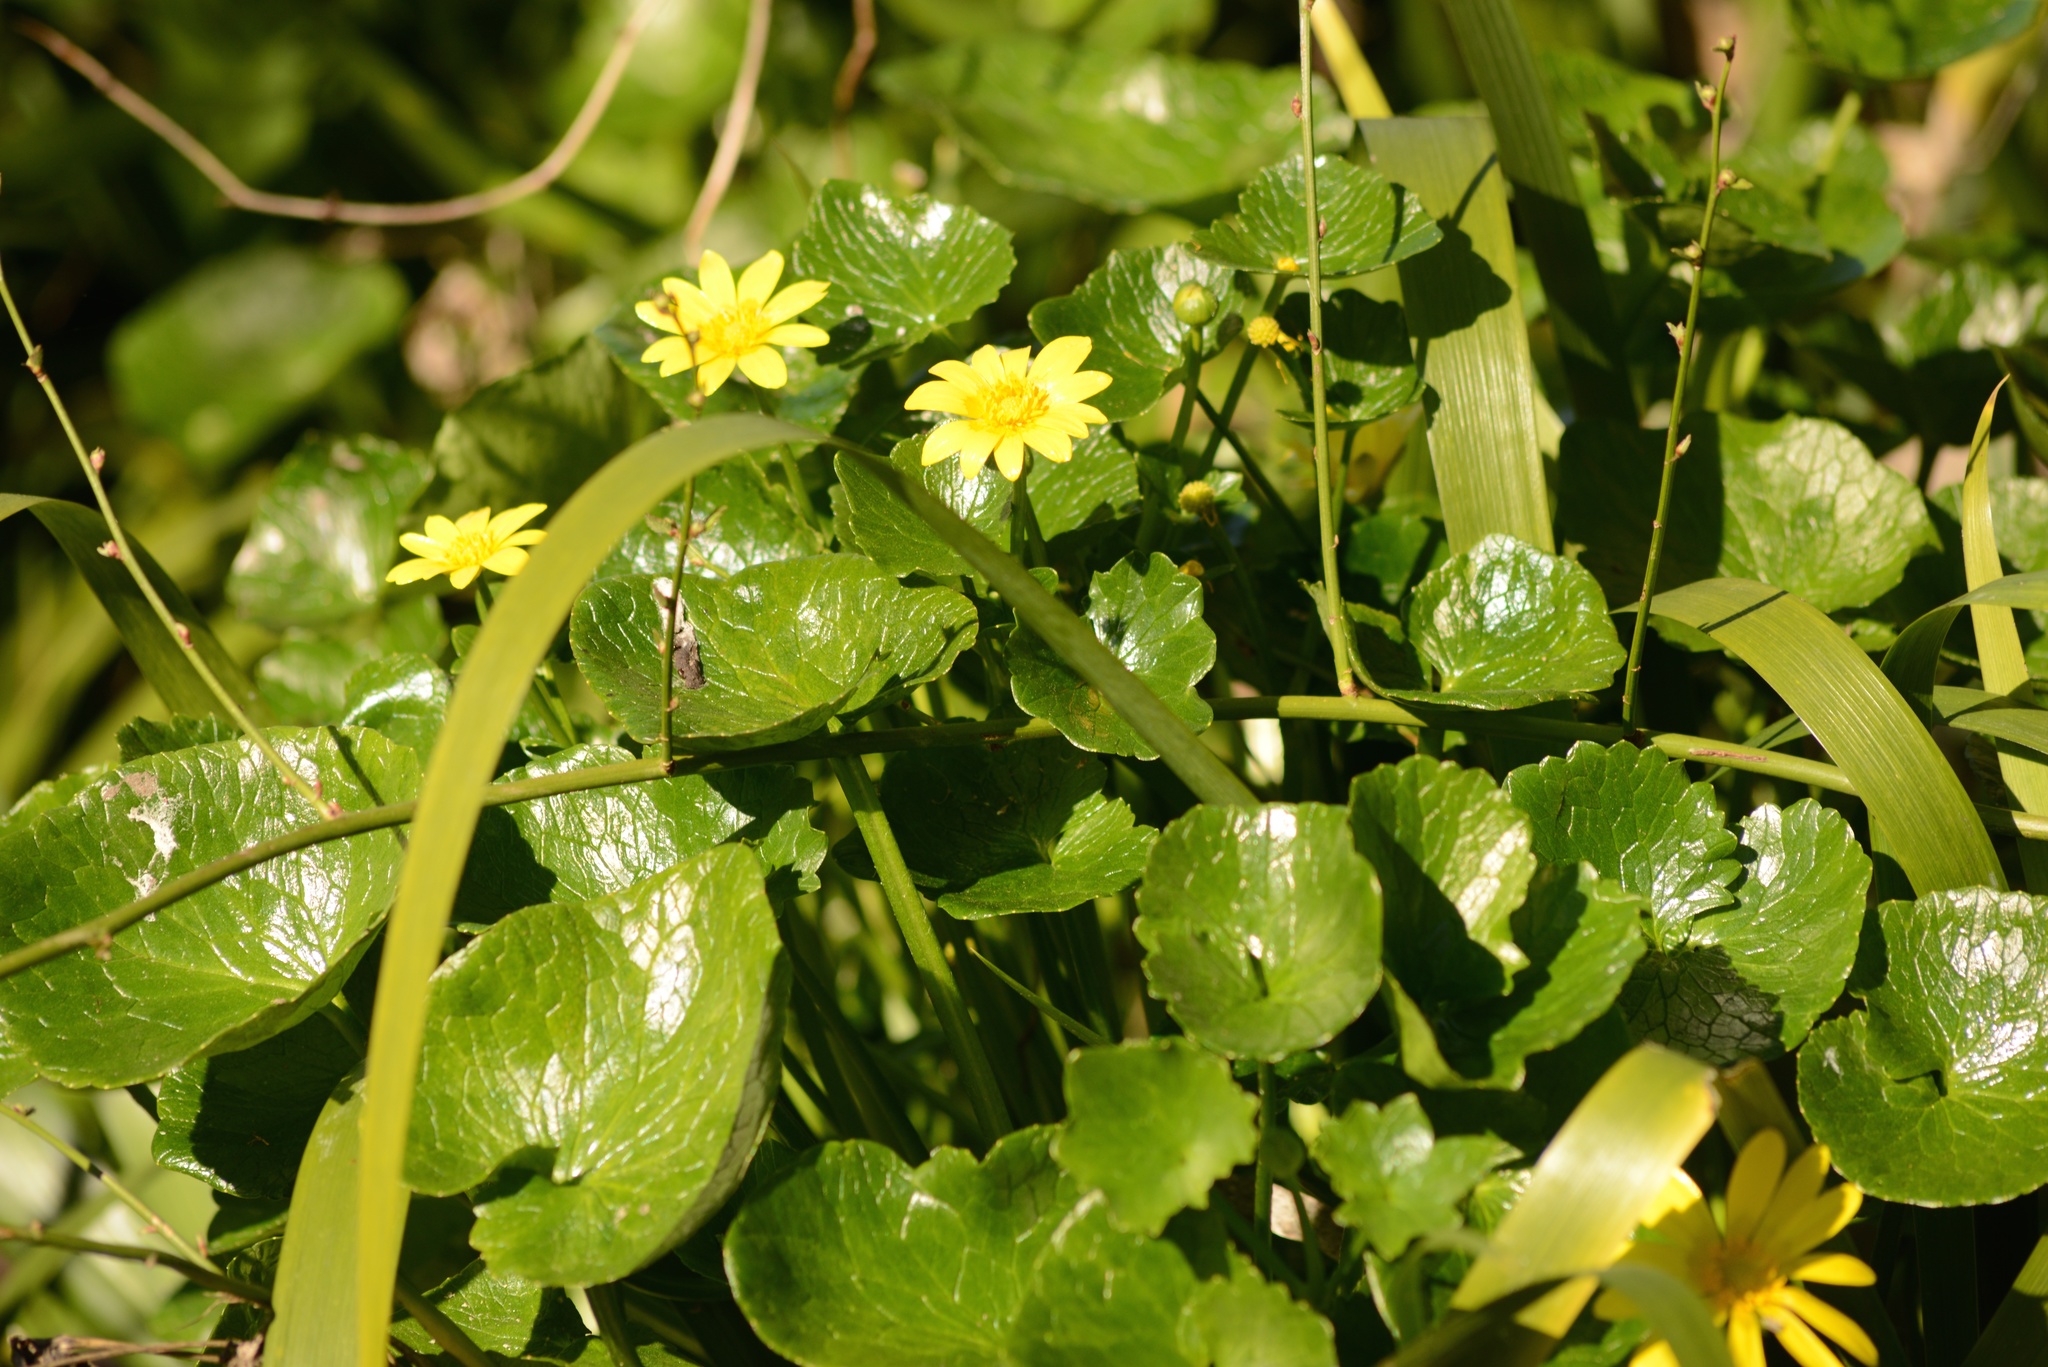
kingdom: Plantae
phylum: Tracheophyta
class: Magnoliopsida
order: Ranunculales
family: Ranunculaceae
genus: Ficaria
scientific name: Ficaria grandiflora
